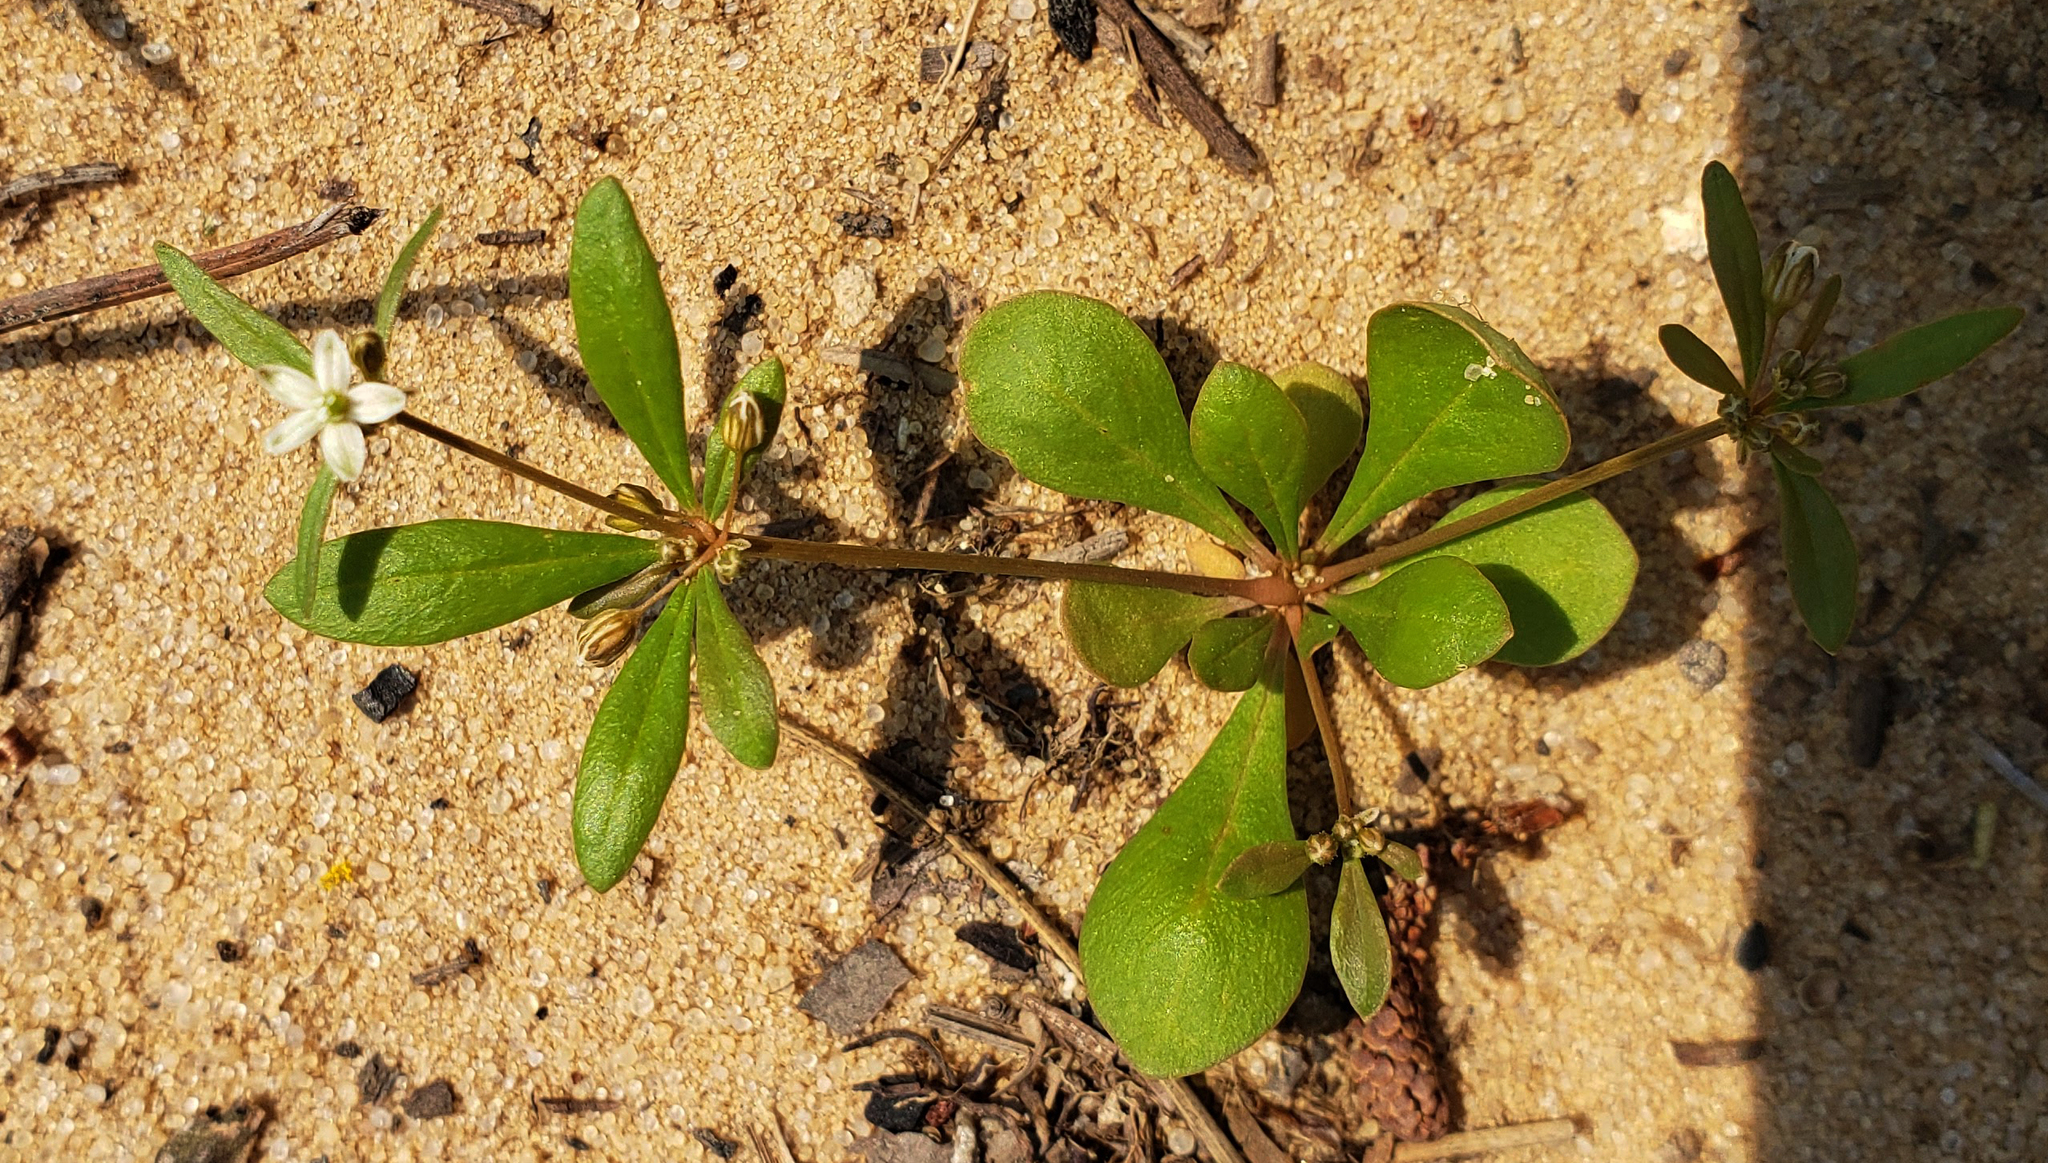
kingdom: Plantae
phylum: Tracheophyta
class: Magnoliopsida
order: Caryophyllales
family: Molluginaceae
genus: Mollugo
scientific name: Mollugo verticillata
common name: Green carpetweed
